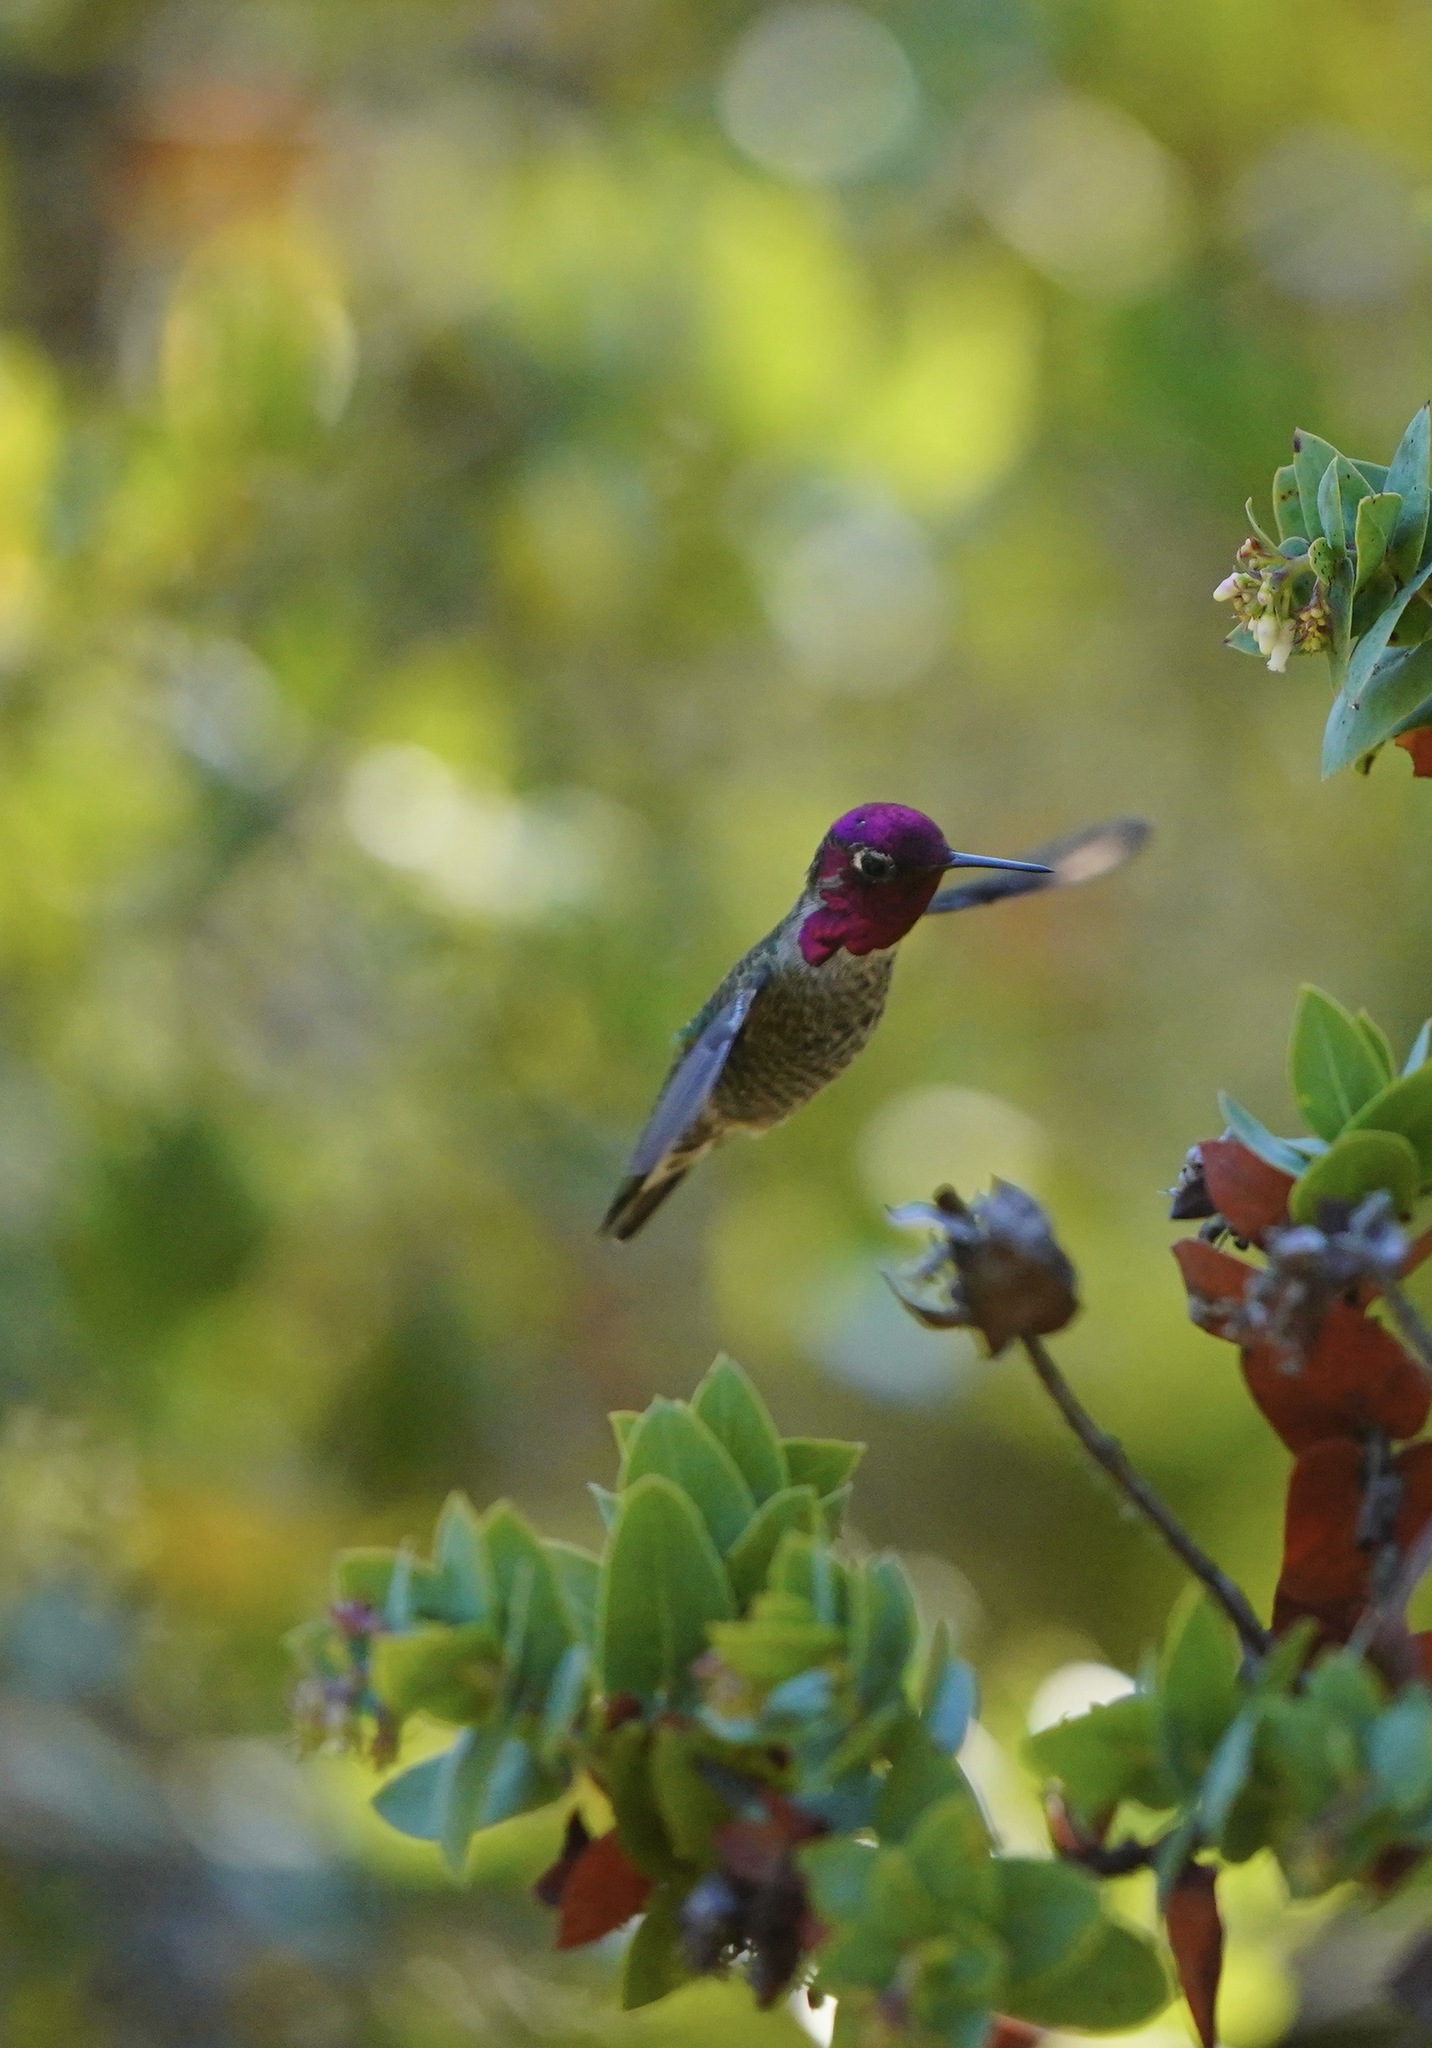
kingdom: Animalia
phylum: Chordata
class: Aves
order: Apodiformes
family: Trochilidae
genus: Calypte
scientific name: Calypte anna
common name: Anna's hummingbird
